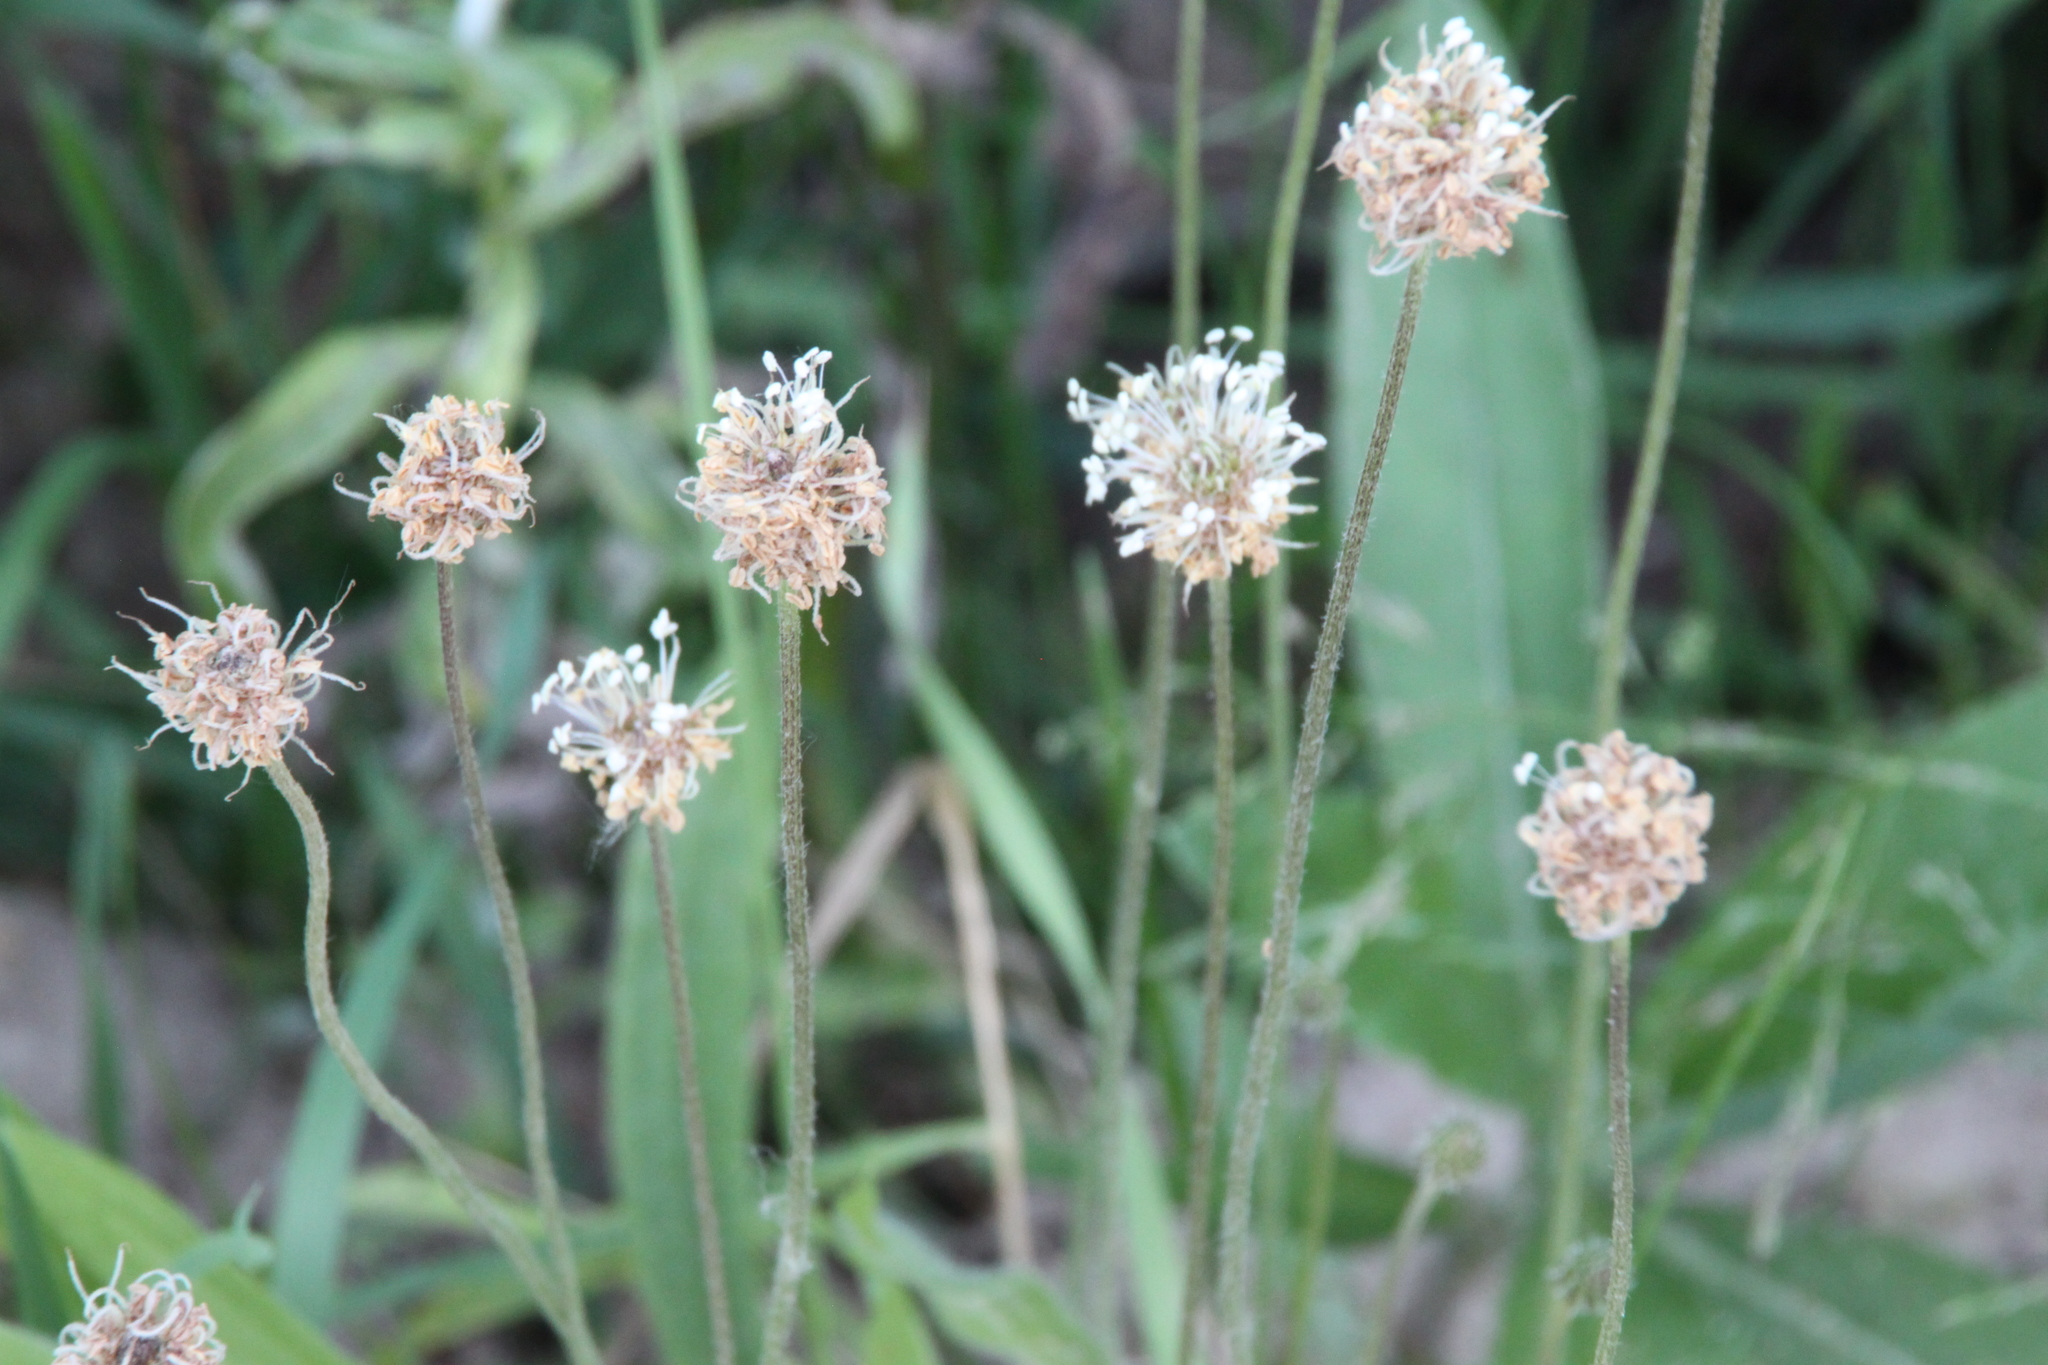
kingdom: Plantae
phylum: Tracheophyta
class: Magnoliopsida
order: Lamiales
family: Plantaginaceae
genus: Plantago
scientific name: Plantago lanceolata
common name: Ribwort plantain
